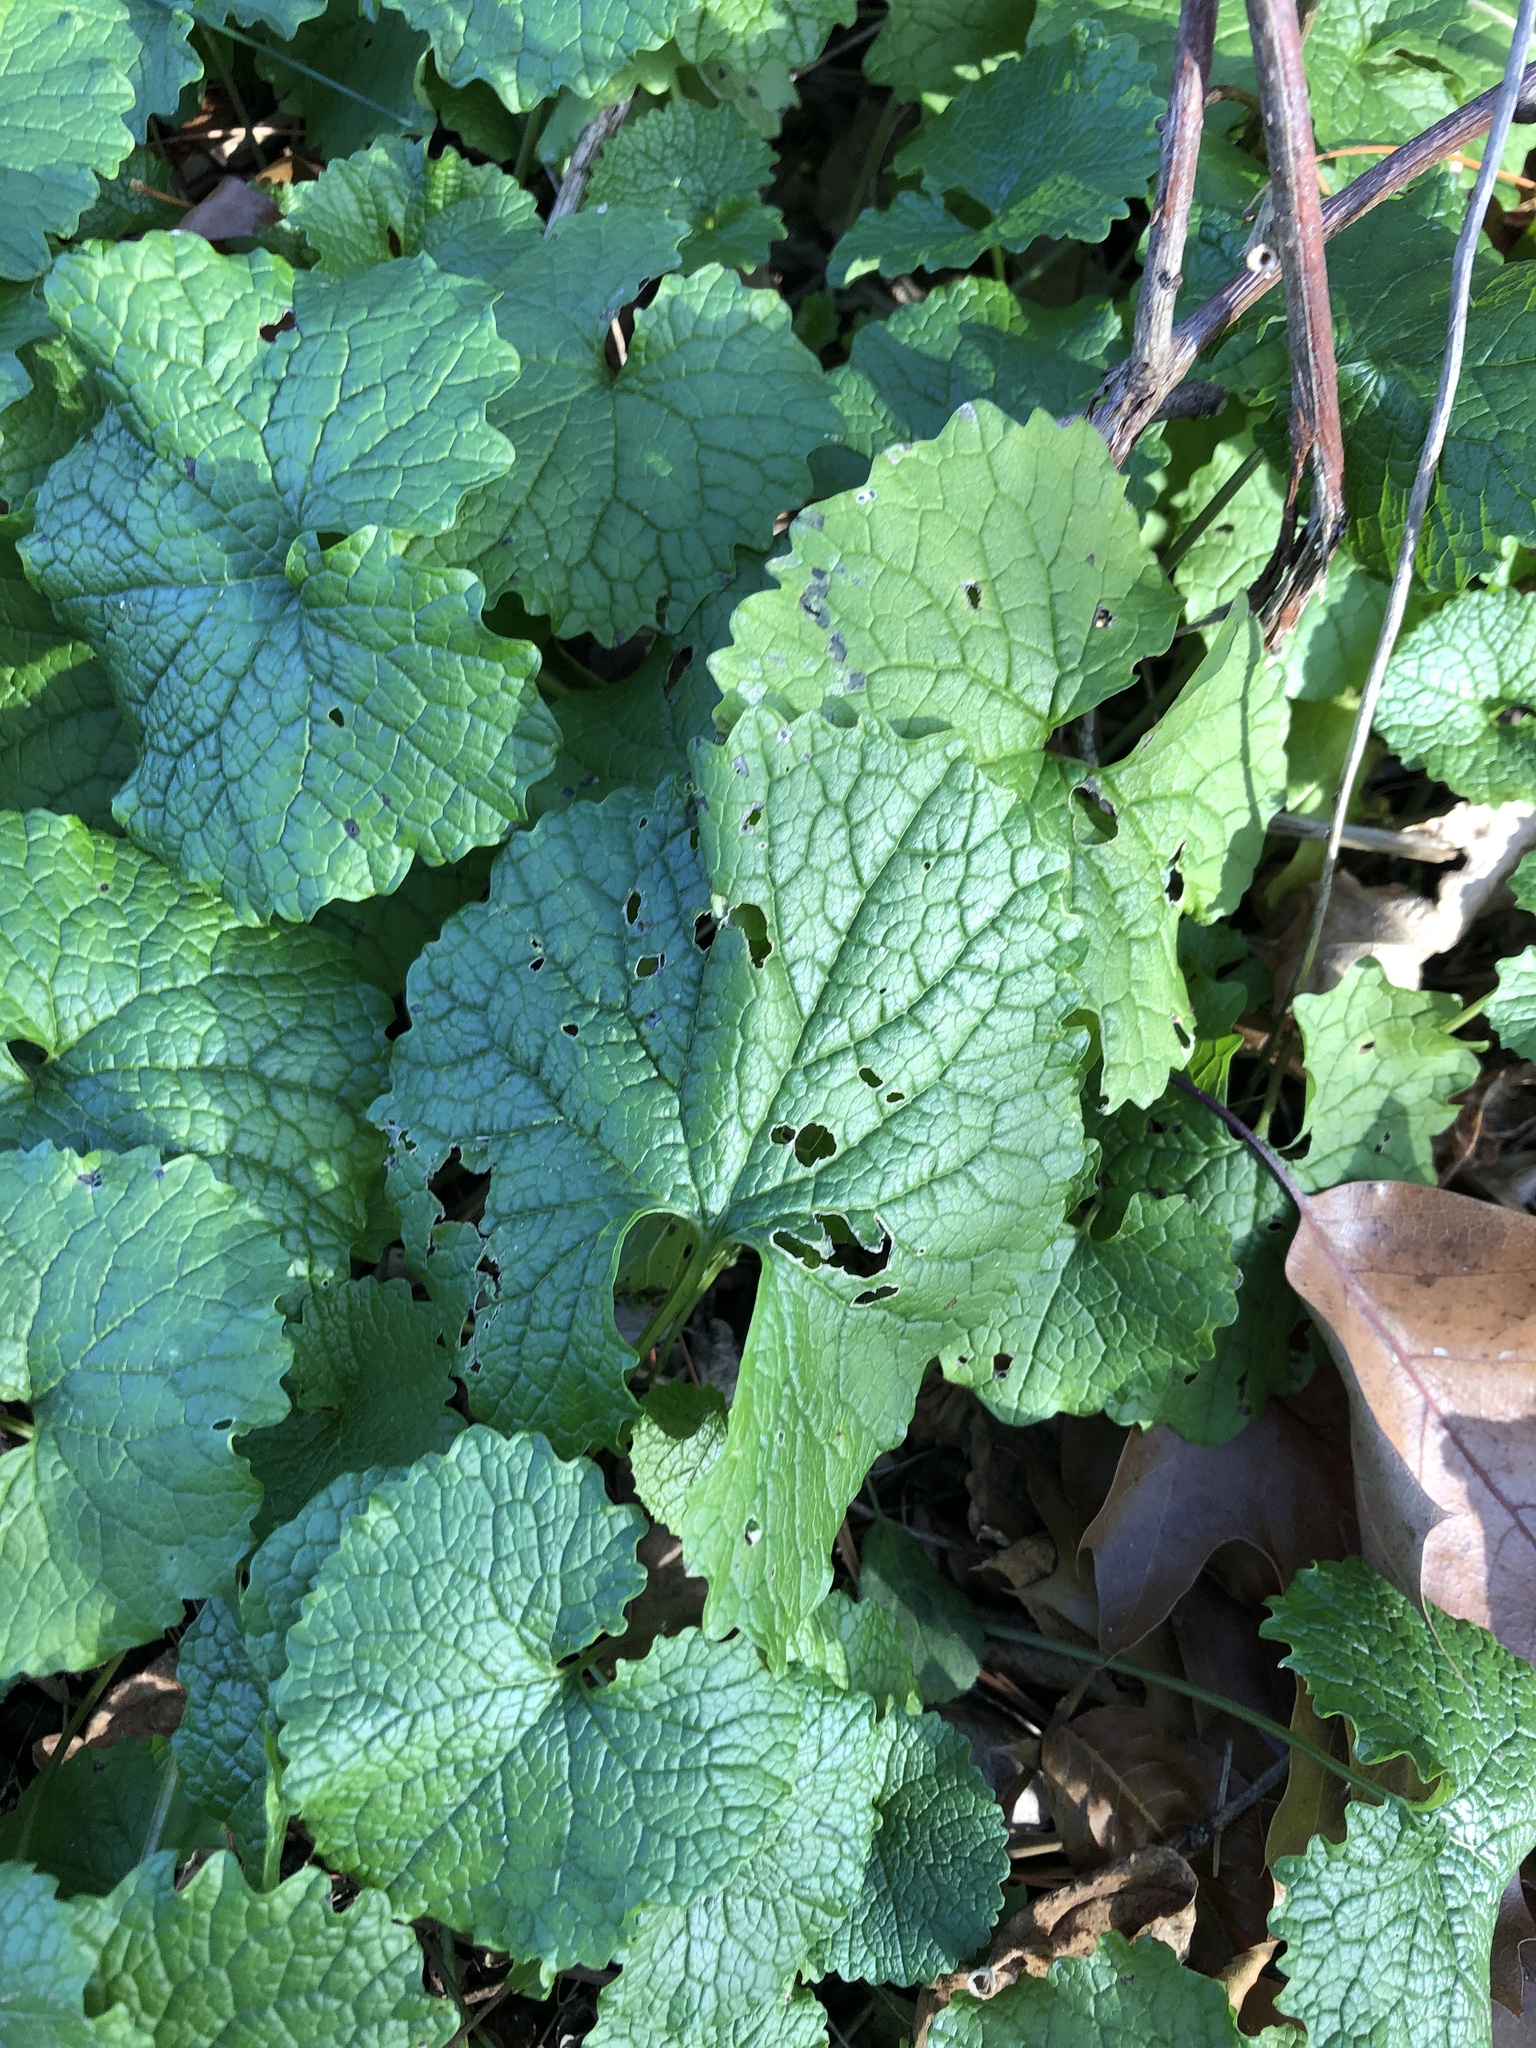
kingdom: Plantae
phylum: Tracheophyta
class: Magnoliopsida
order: Brassicales
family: Brassicaceae
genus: Alliaria
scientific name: Alliaria petiolata
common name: Garlic mustard
